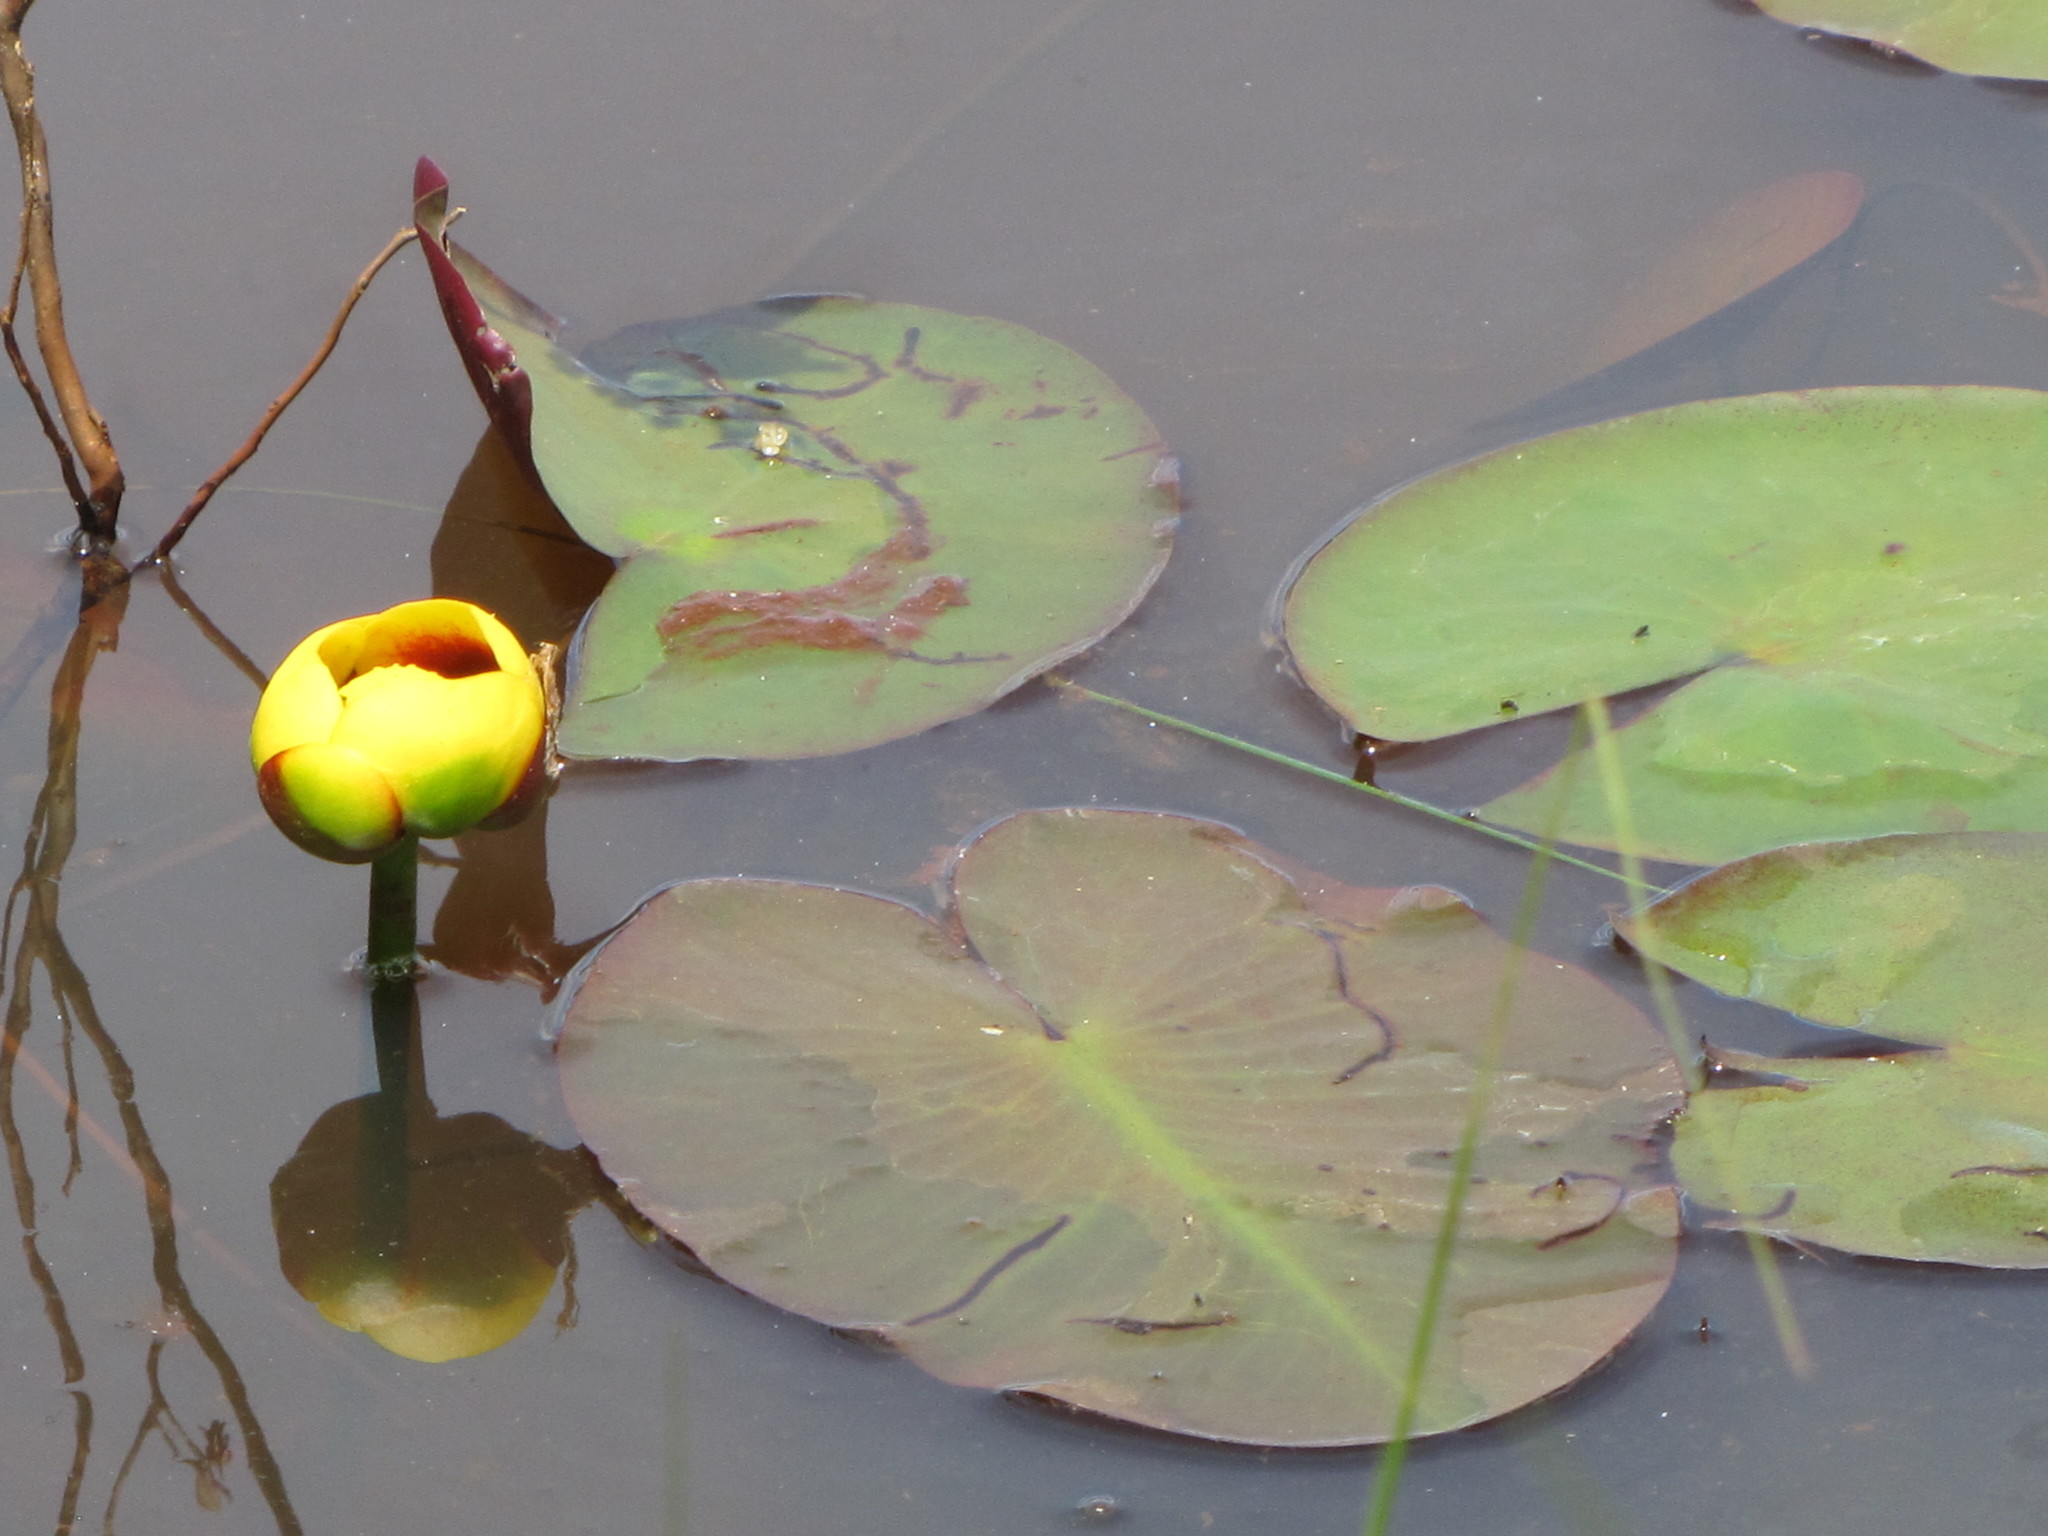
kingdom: Plantae
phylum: Tracheophyta
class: Magnoliopsida
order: Nymphaeales
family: Nymphaeaceae
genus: Nuphar
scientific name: Nuphar variegata
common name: Beaver-root
